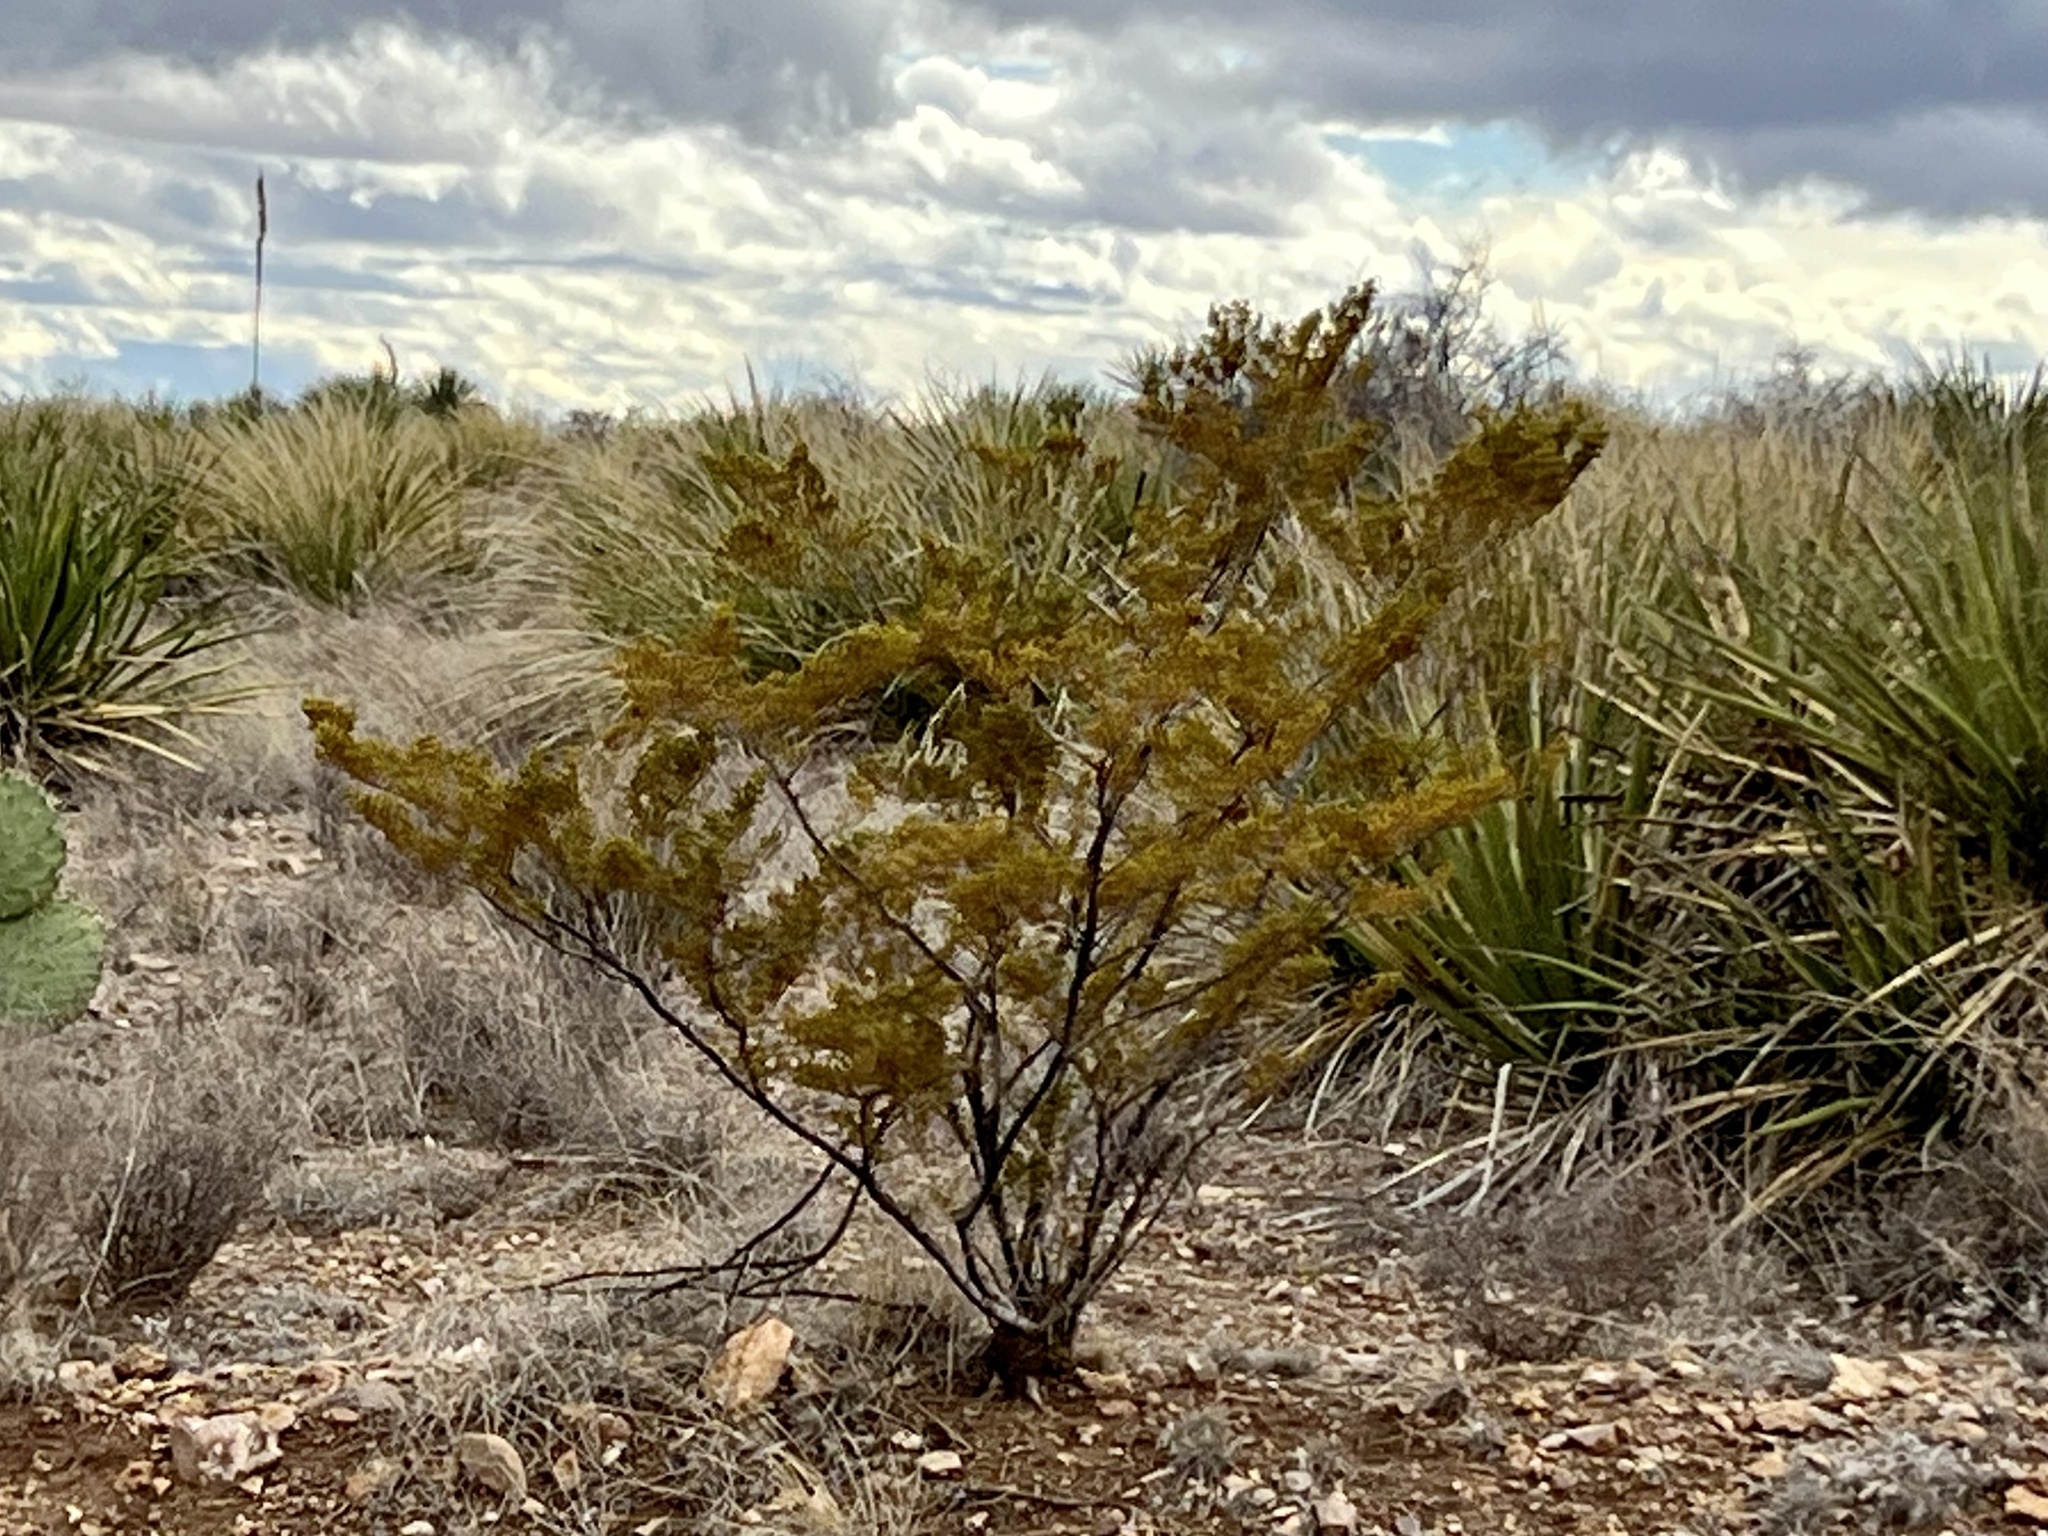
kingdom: Plantae
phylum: Tracheophyta
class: Magnoliopsida
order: Zygophyllales
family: Zygophyllaceae
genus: Larrea
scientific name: Larrea tridentata
